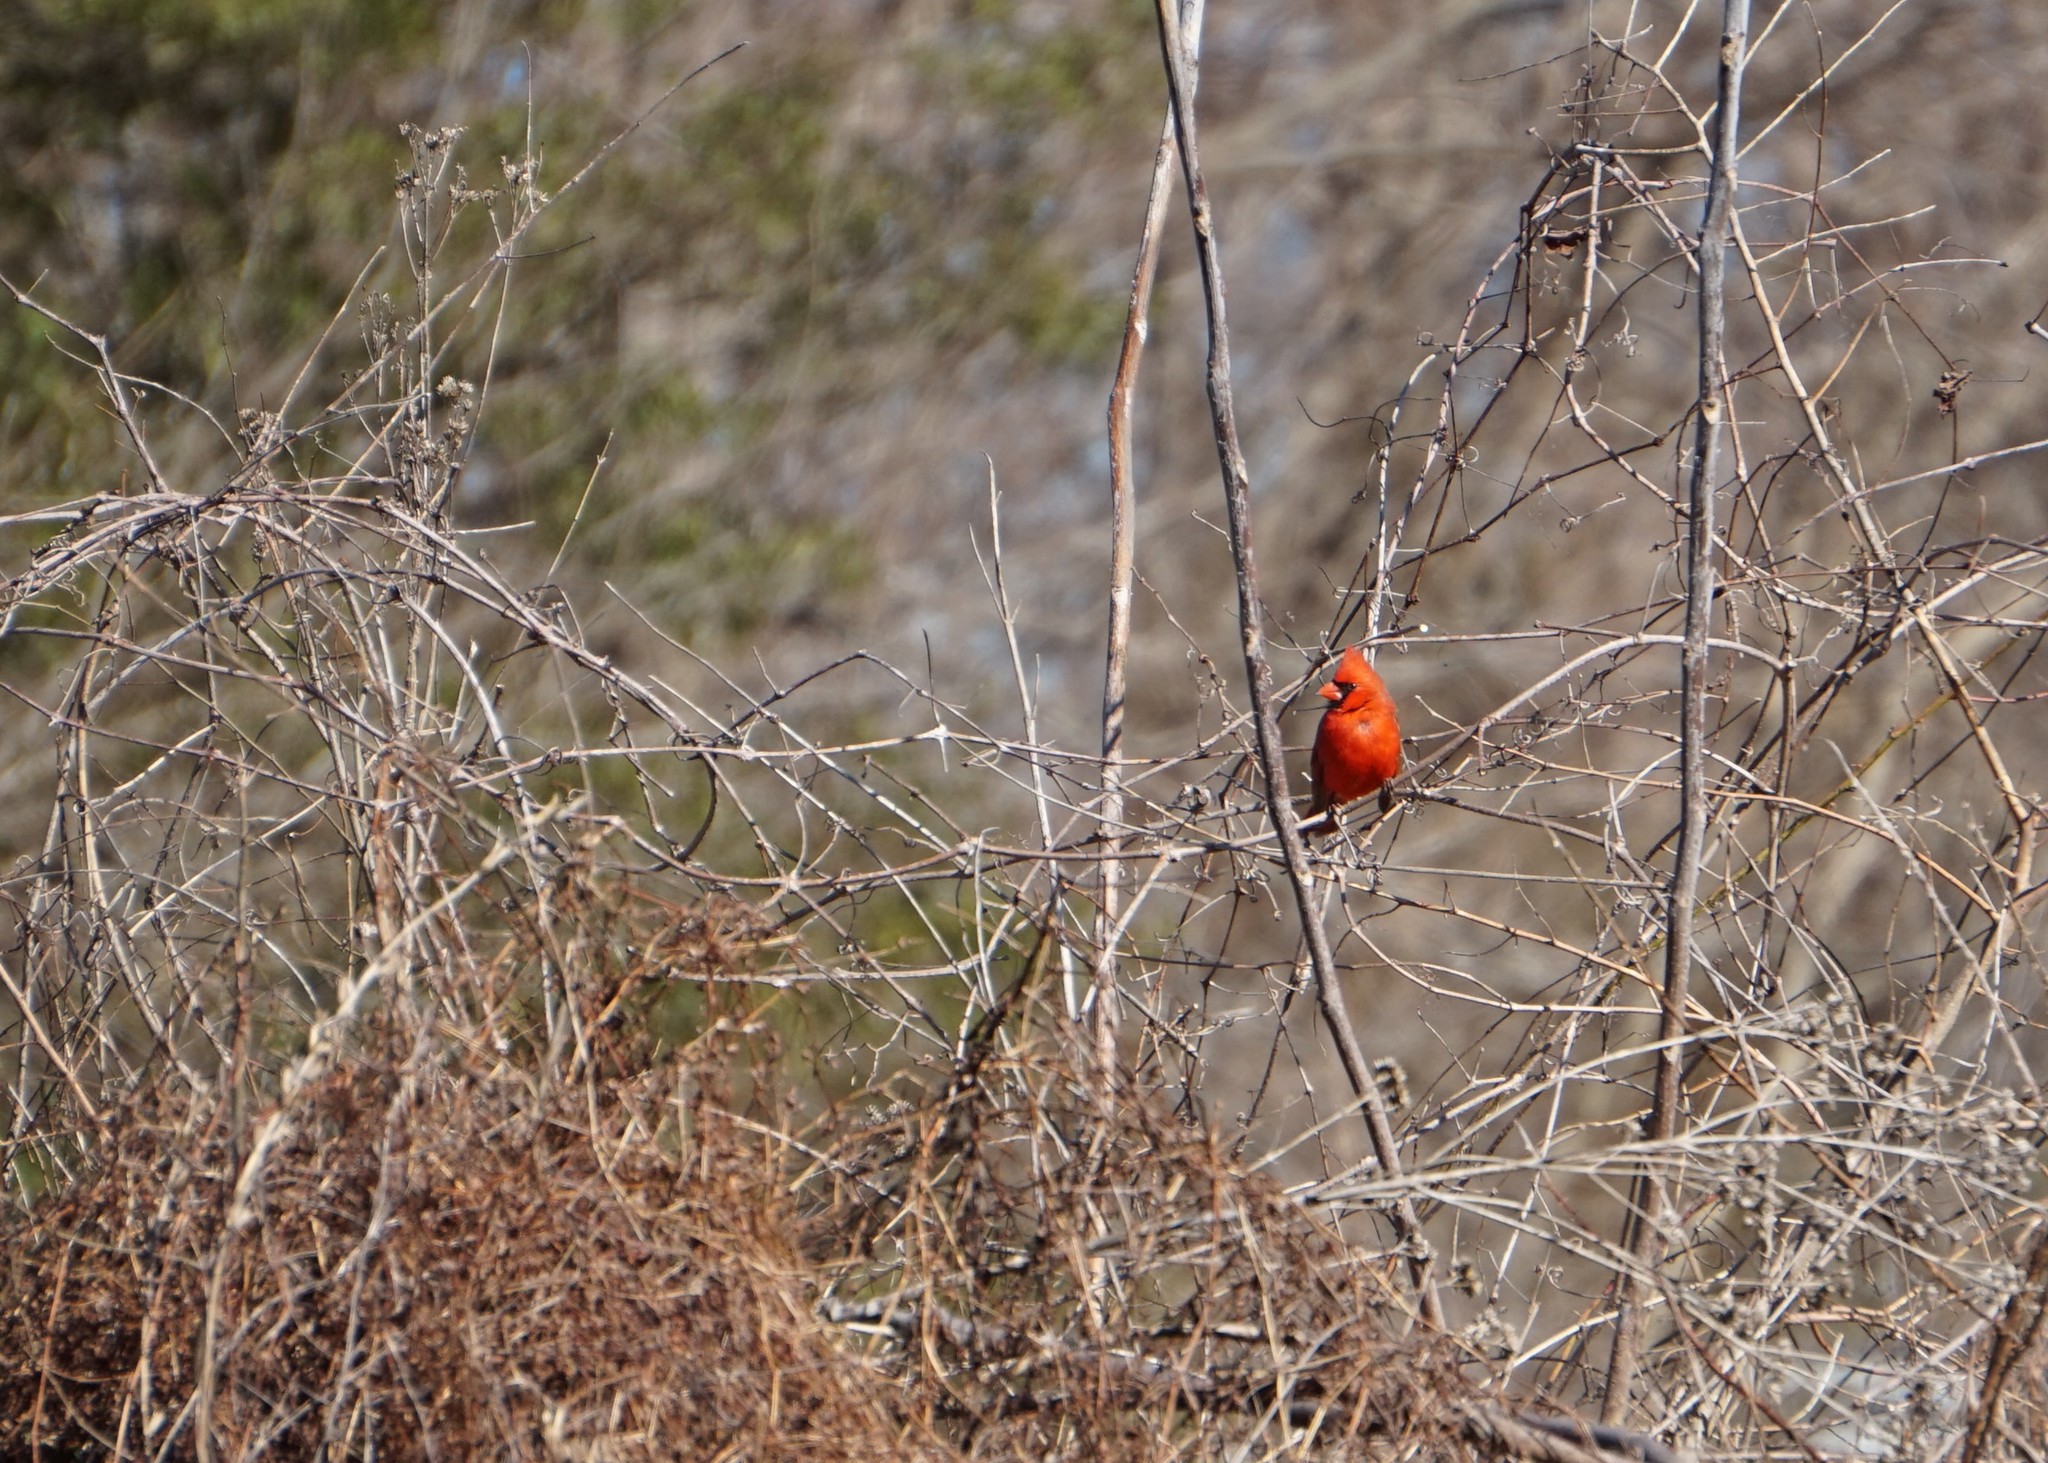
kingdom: Animalia
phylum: Chordata
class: Aves
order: Passeriformes
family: Cardinalidae
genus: Cardinalis
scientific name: Cardinalis cardinalis
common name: Northern cardinal
